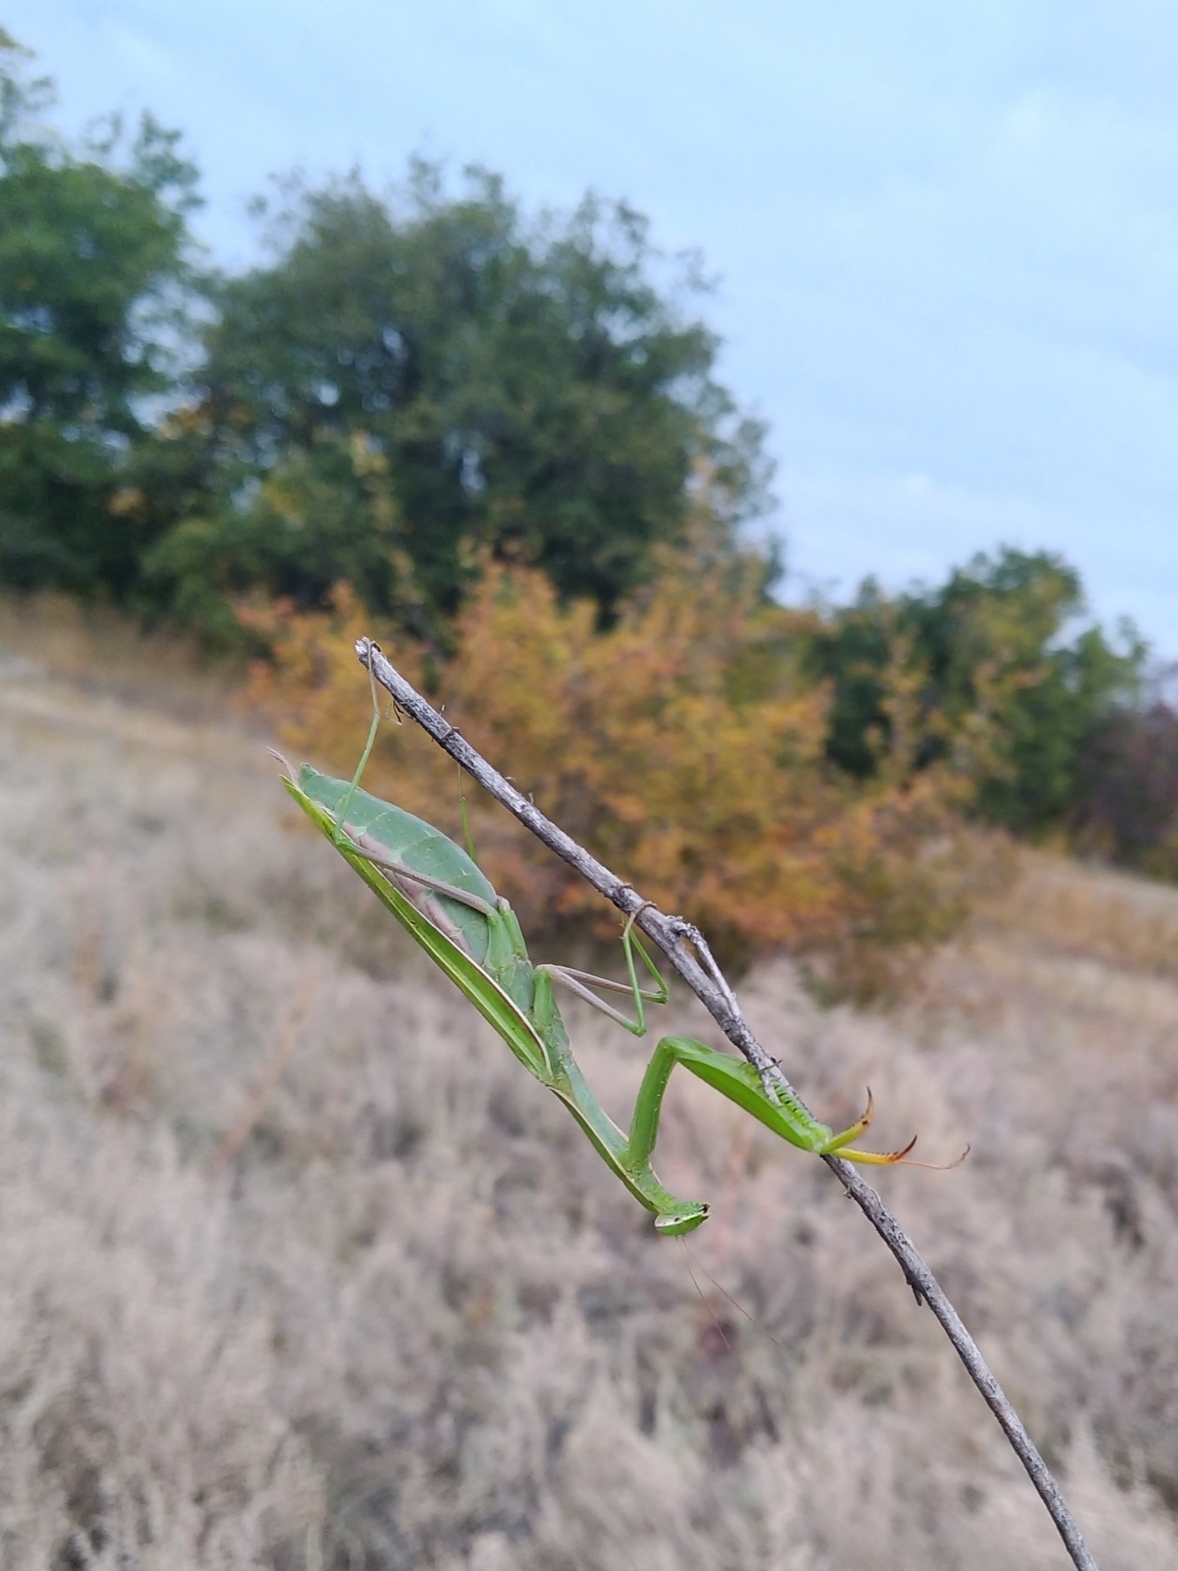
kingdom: Animalia
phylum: Arthropoda
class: Insecta
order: Mantodea
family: Mantidae
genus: Mantis
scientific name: Mantis religiosa
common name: Praying mantis
